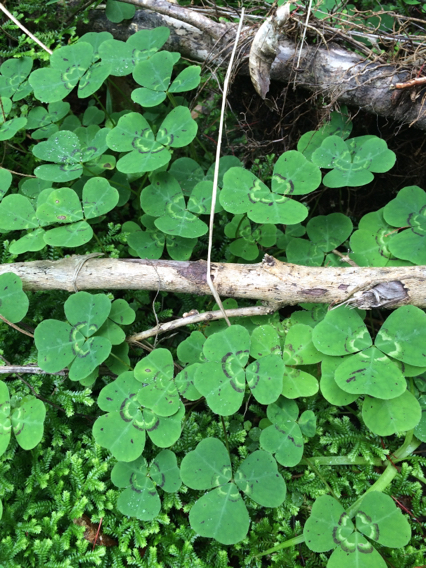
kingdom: Plantae
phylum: Tracheophyta
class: Magnoliopsida
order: Fabales
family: Fabaceae
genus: Parochetus
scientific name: Parochetus communis
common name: Blue oxalis
